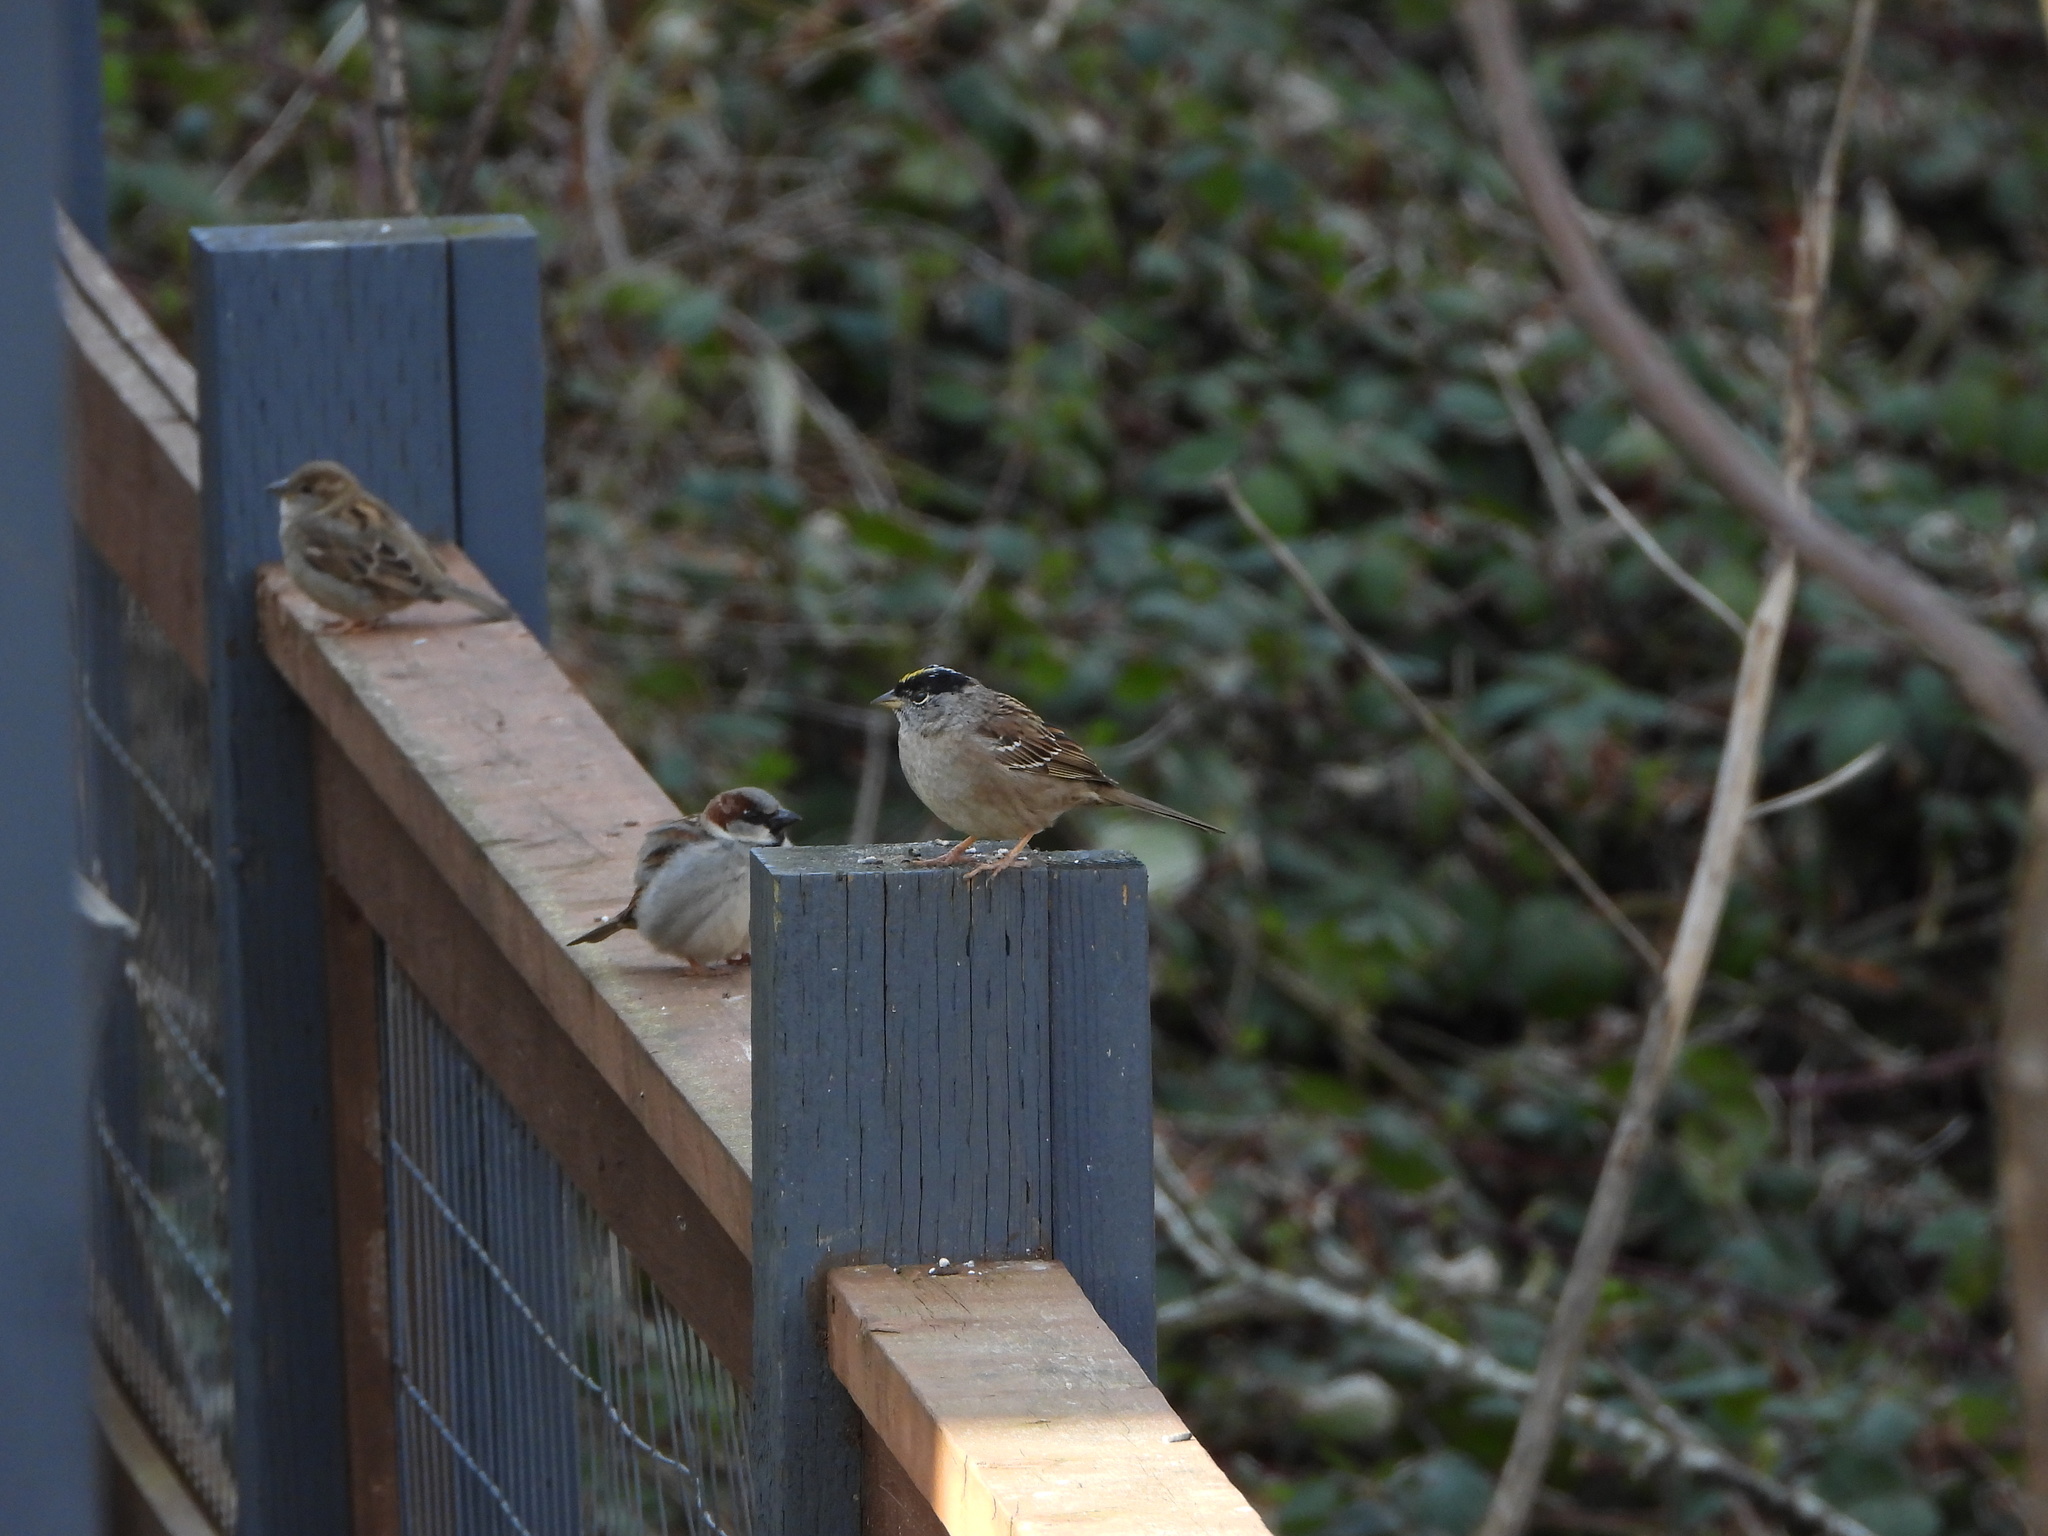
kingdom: Animalia
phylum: Chordata
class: Aves
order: Passeriformes
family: Passerellidae
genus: Zonotrichia
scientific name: Zonotrichia atricapilla
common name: Golden-crowned sparrow
